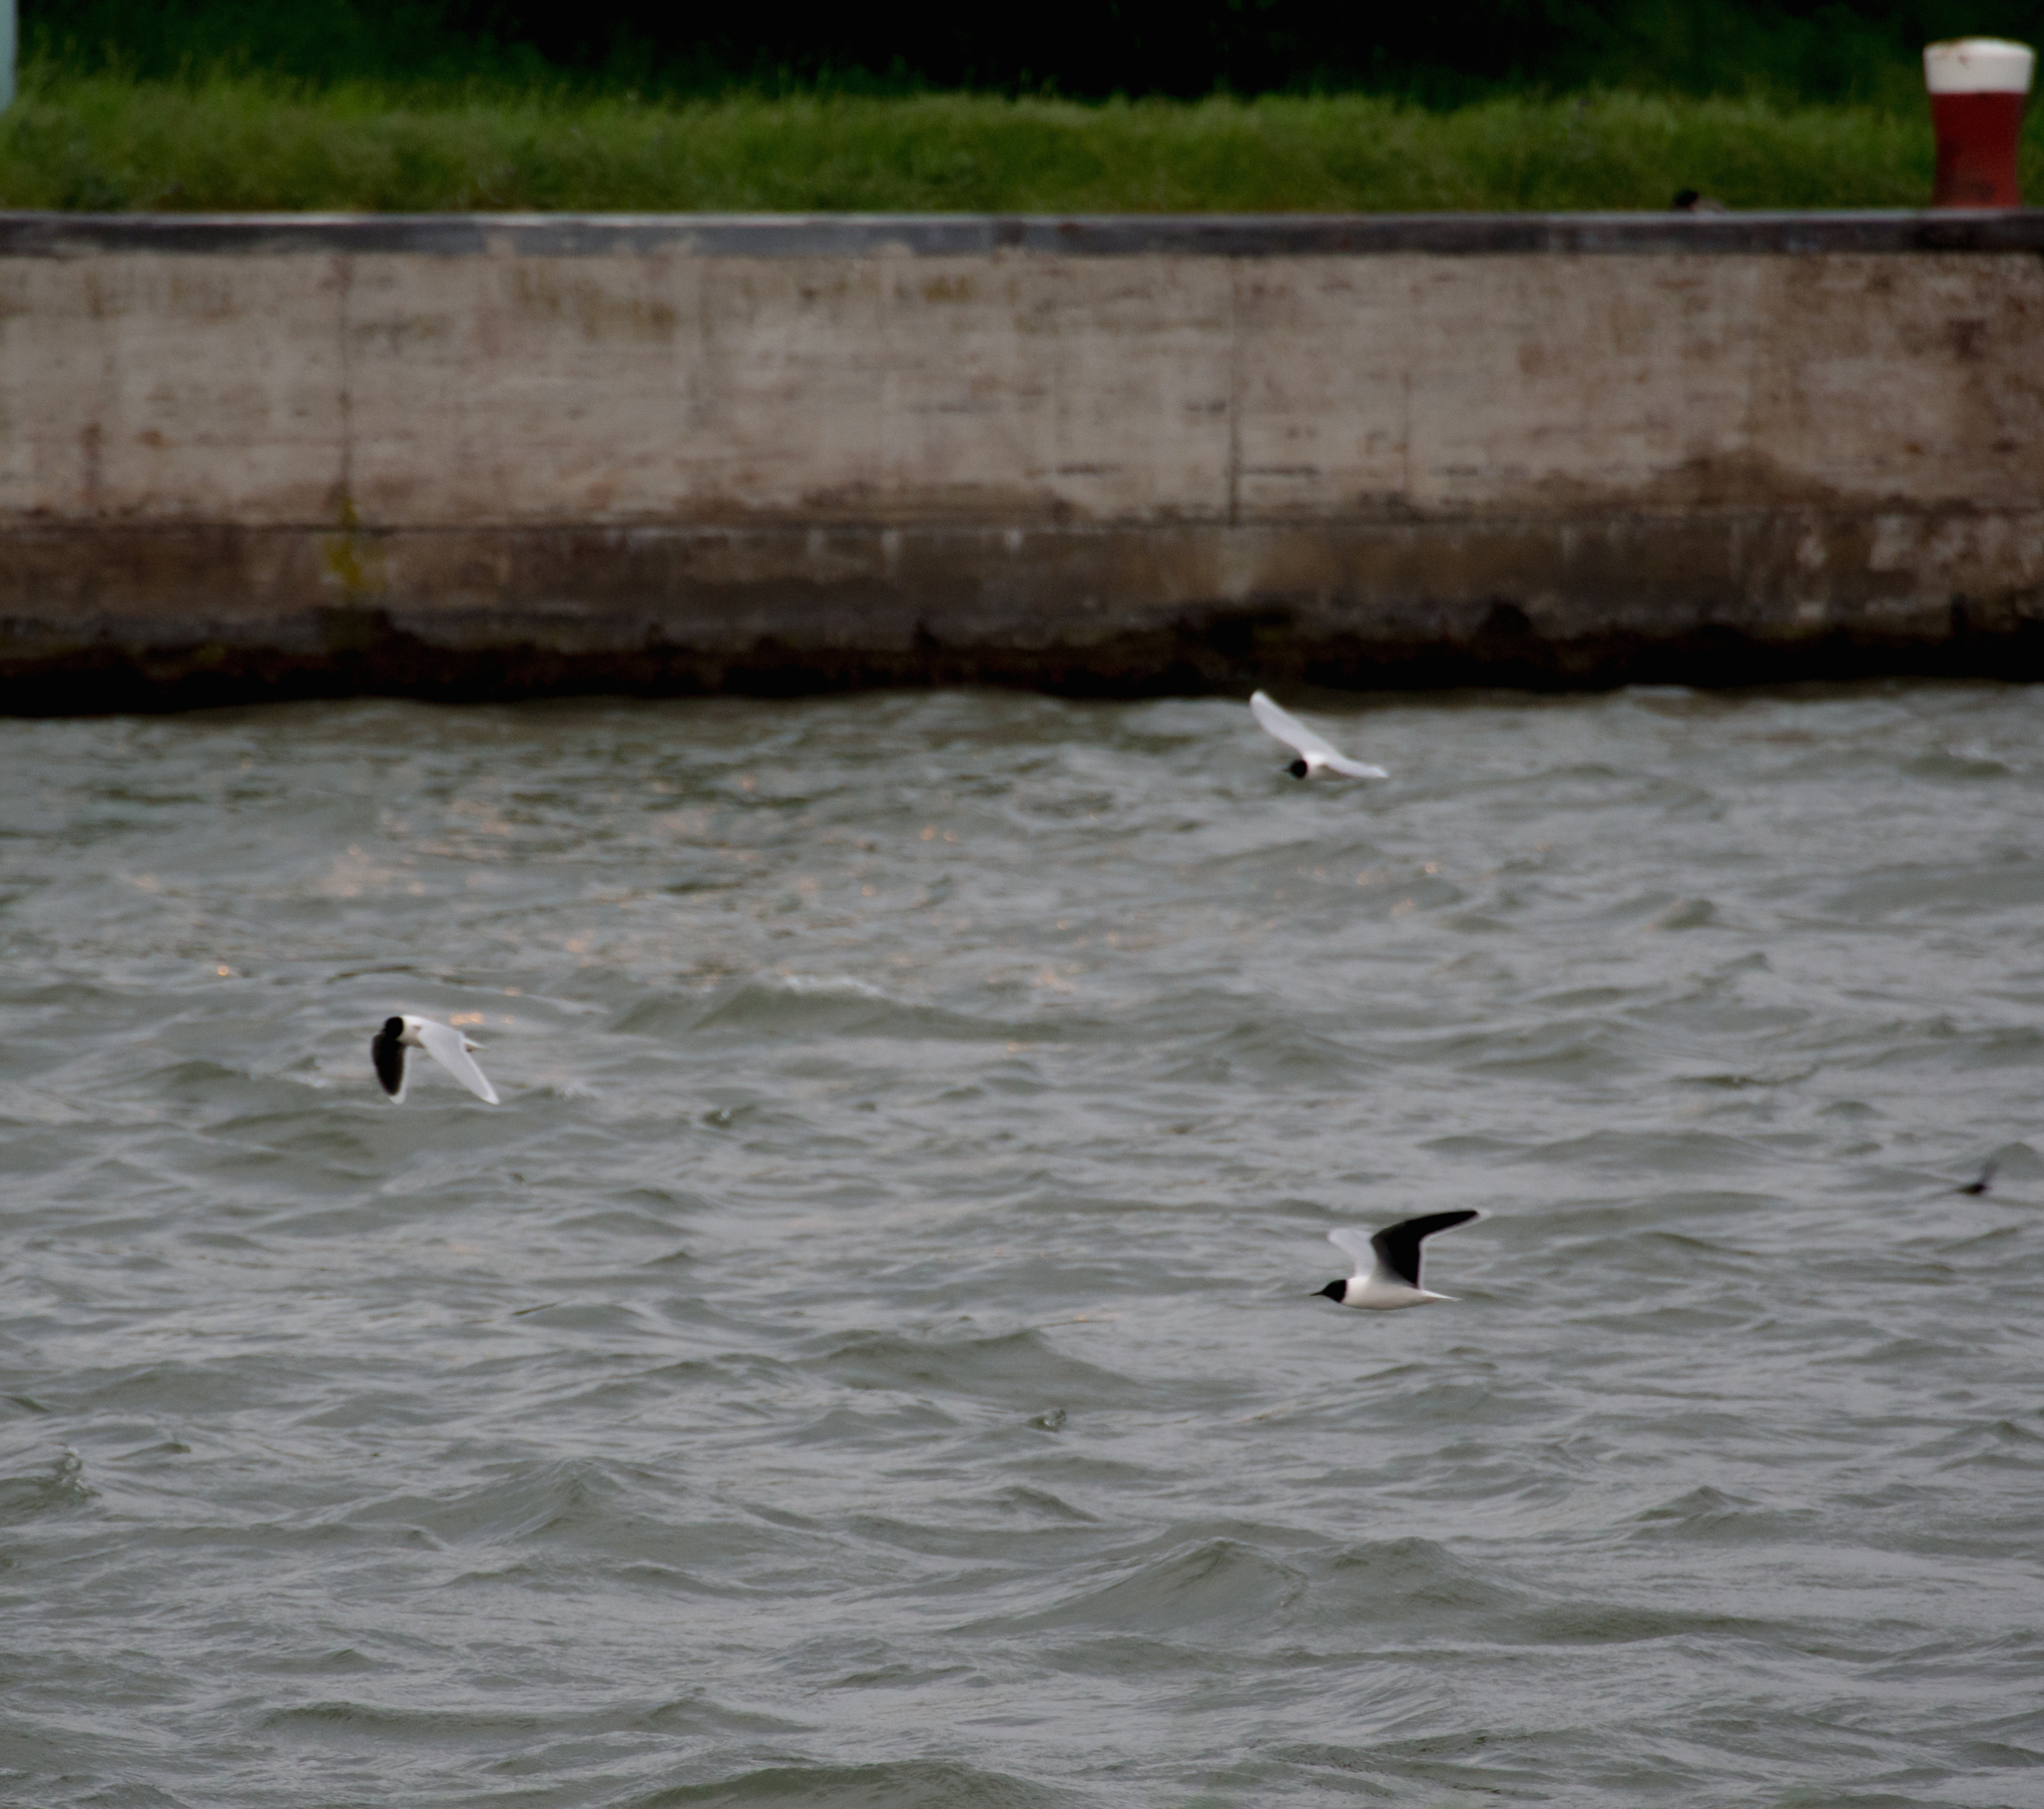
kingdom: Animalia
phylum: Chordata
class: Aves
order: Charadriiformes
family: Laridae
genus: Hydrocoloeus
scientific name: Hydrocoloeus minutus
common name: Little gull
